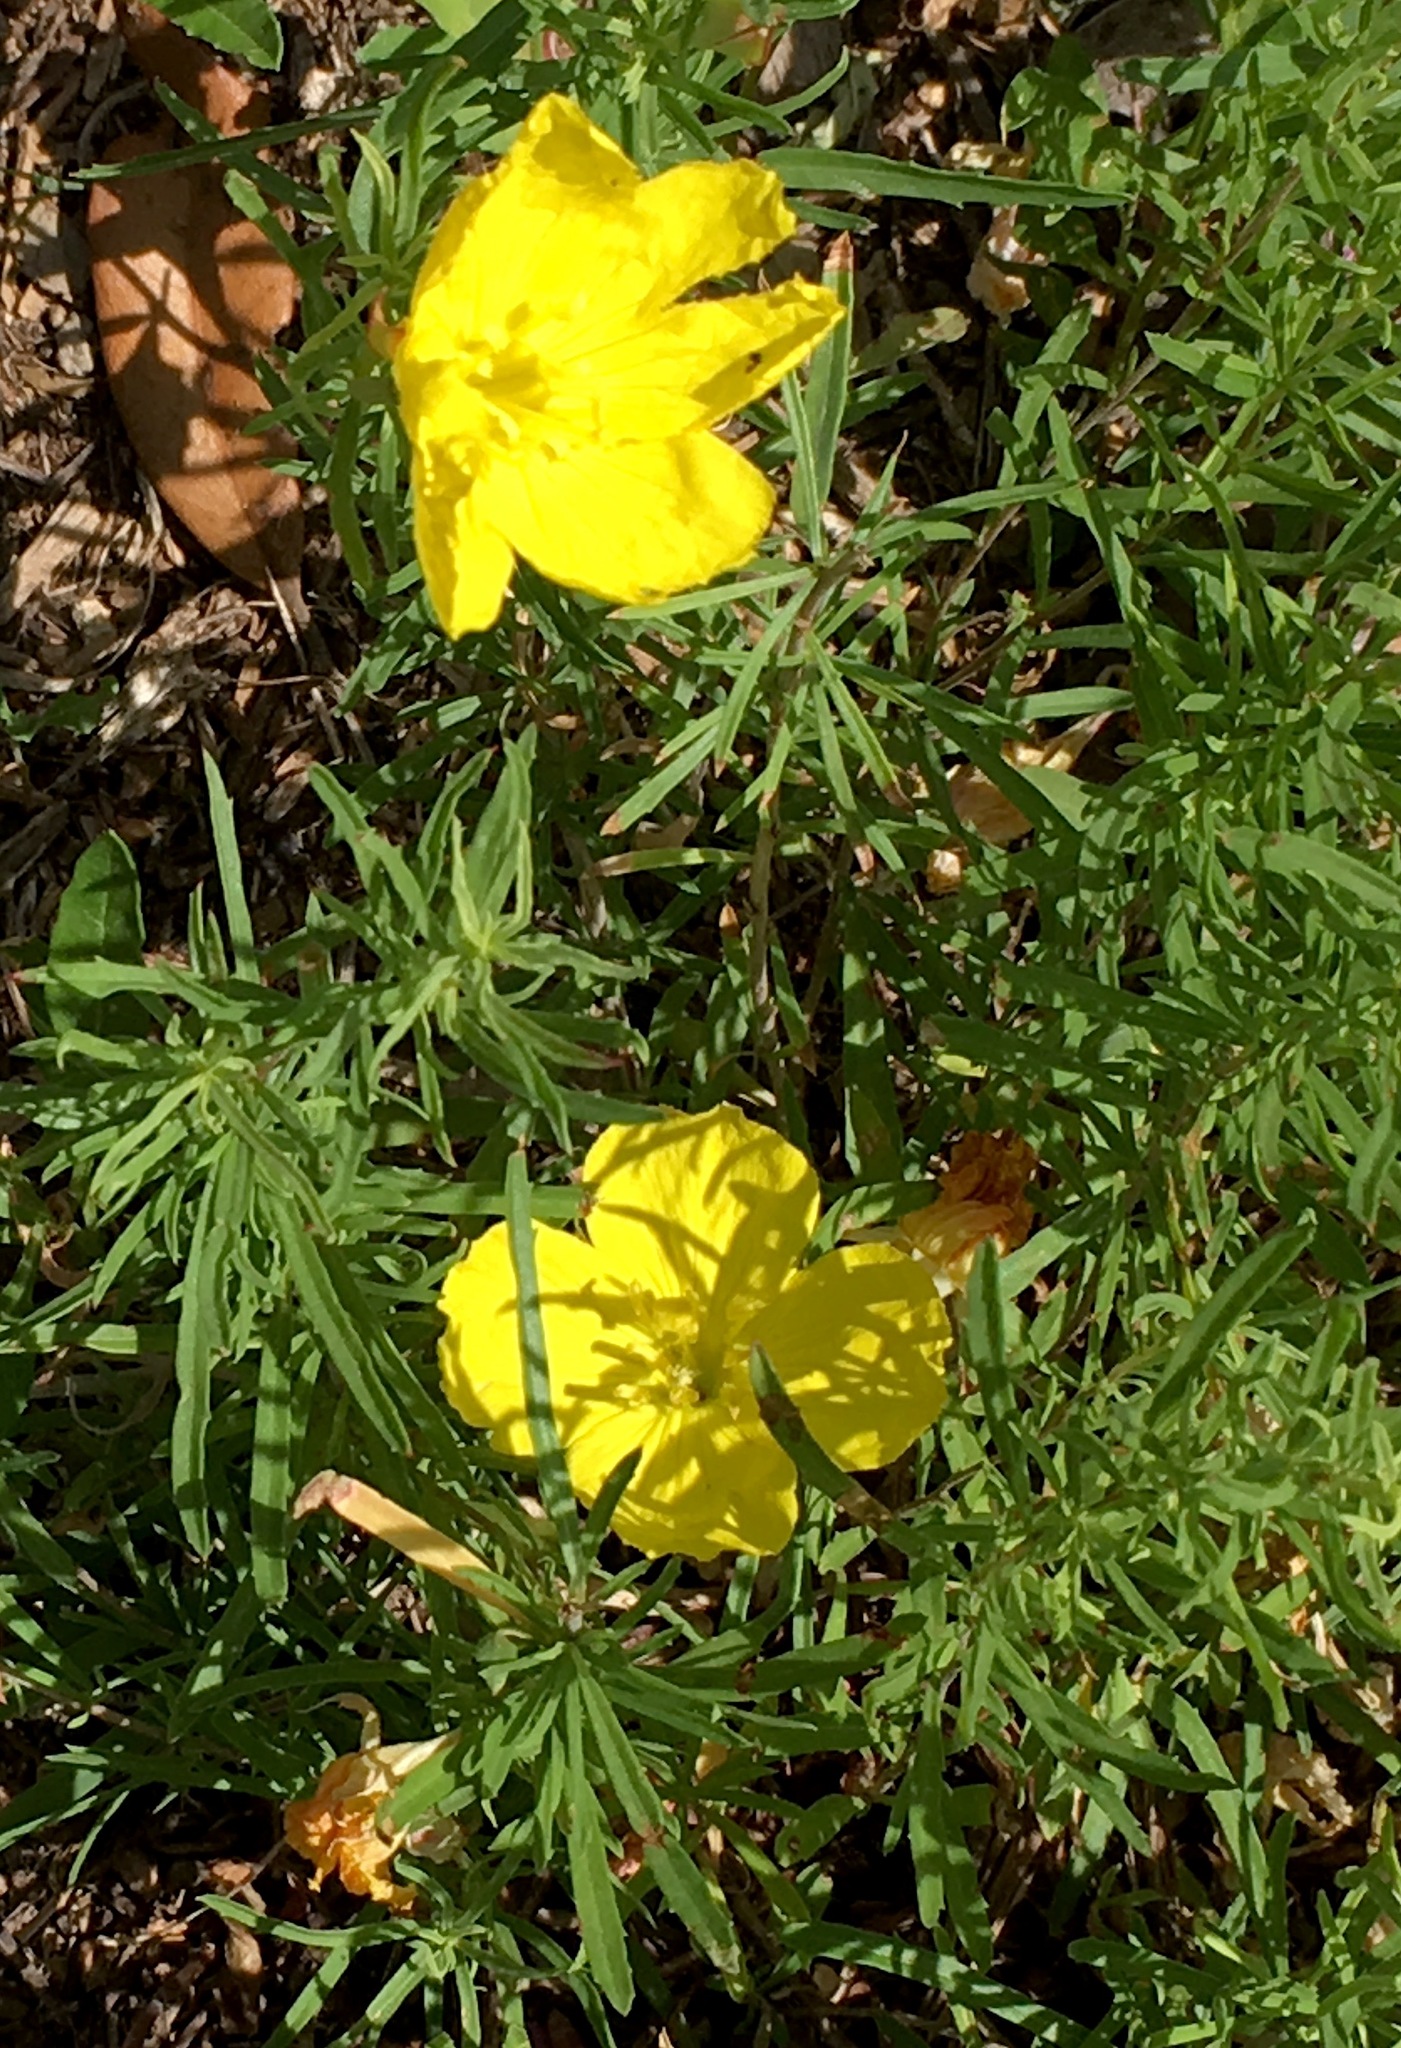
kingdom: Plantae
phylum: Tracheophyta
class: Magnoliopsida
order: Myrtales
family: Onagraceae
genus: Oenothera
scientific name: Oenothera
